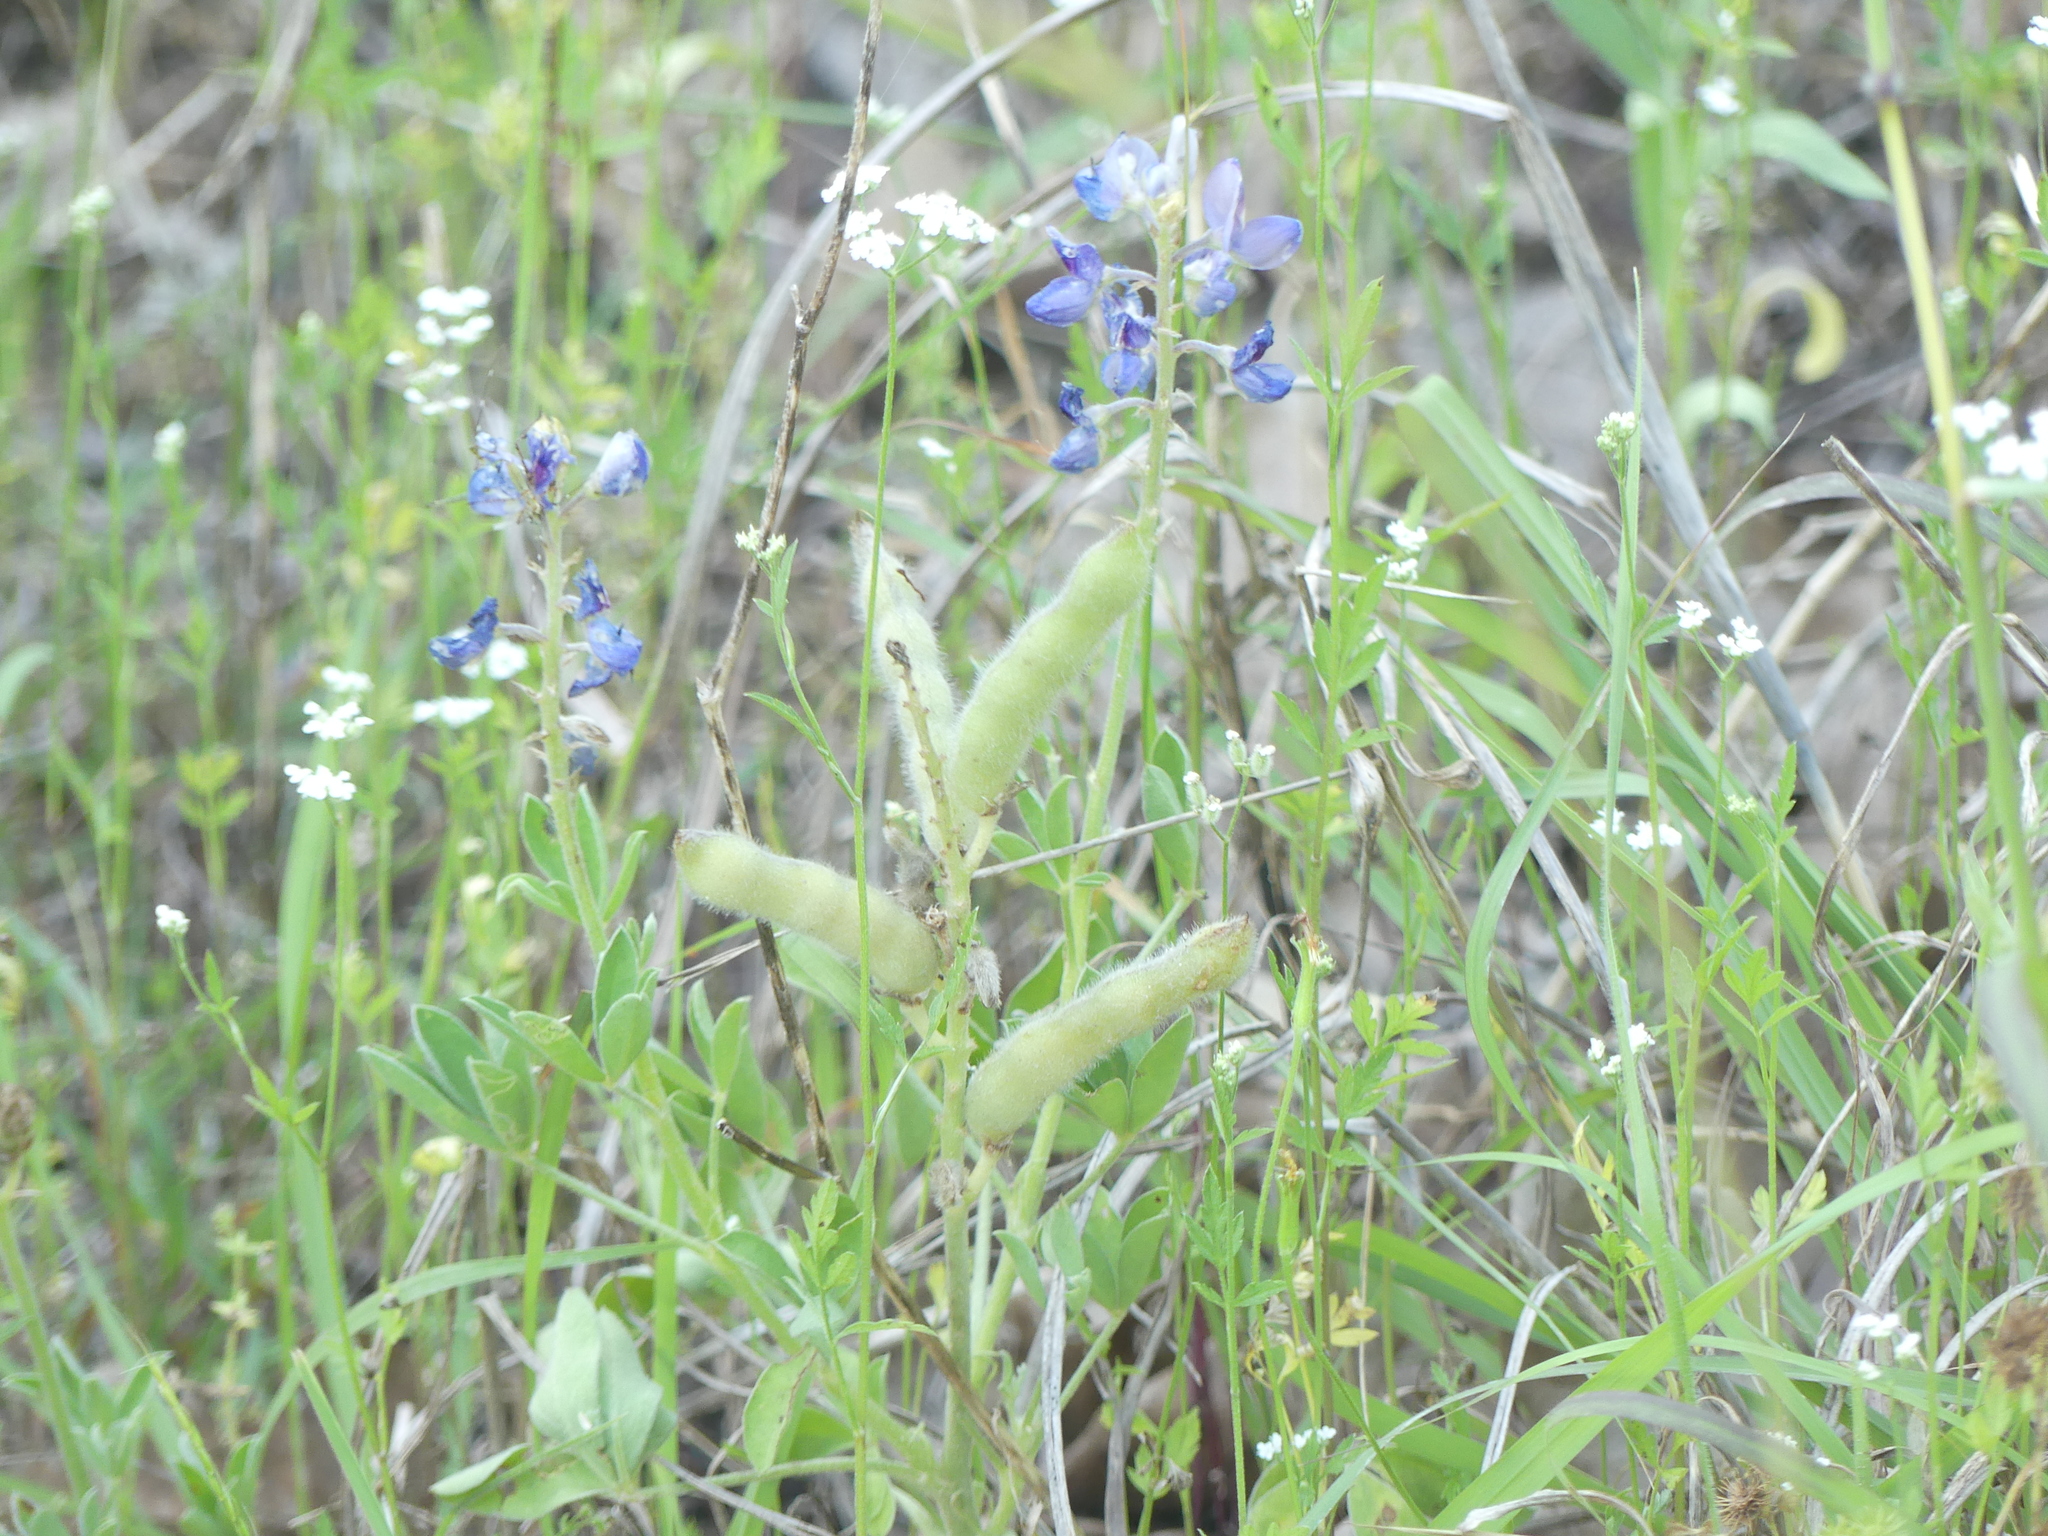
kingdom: Plantae
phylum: Tracheophyta
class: Magnoliopsida
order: Fabales
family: Fabaceae
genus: Lupinus
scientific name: Lupinus texensis
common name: Texas bluebonnet
